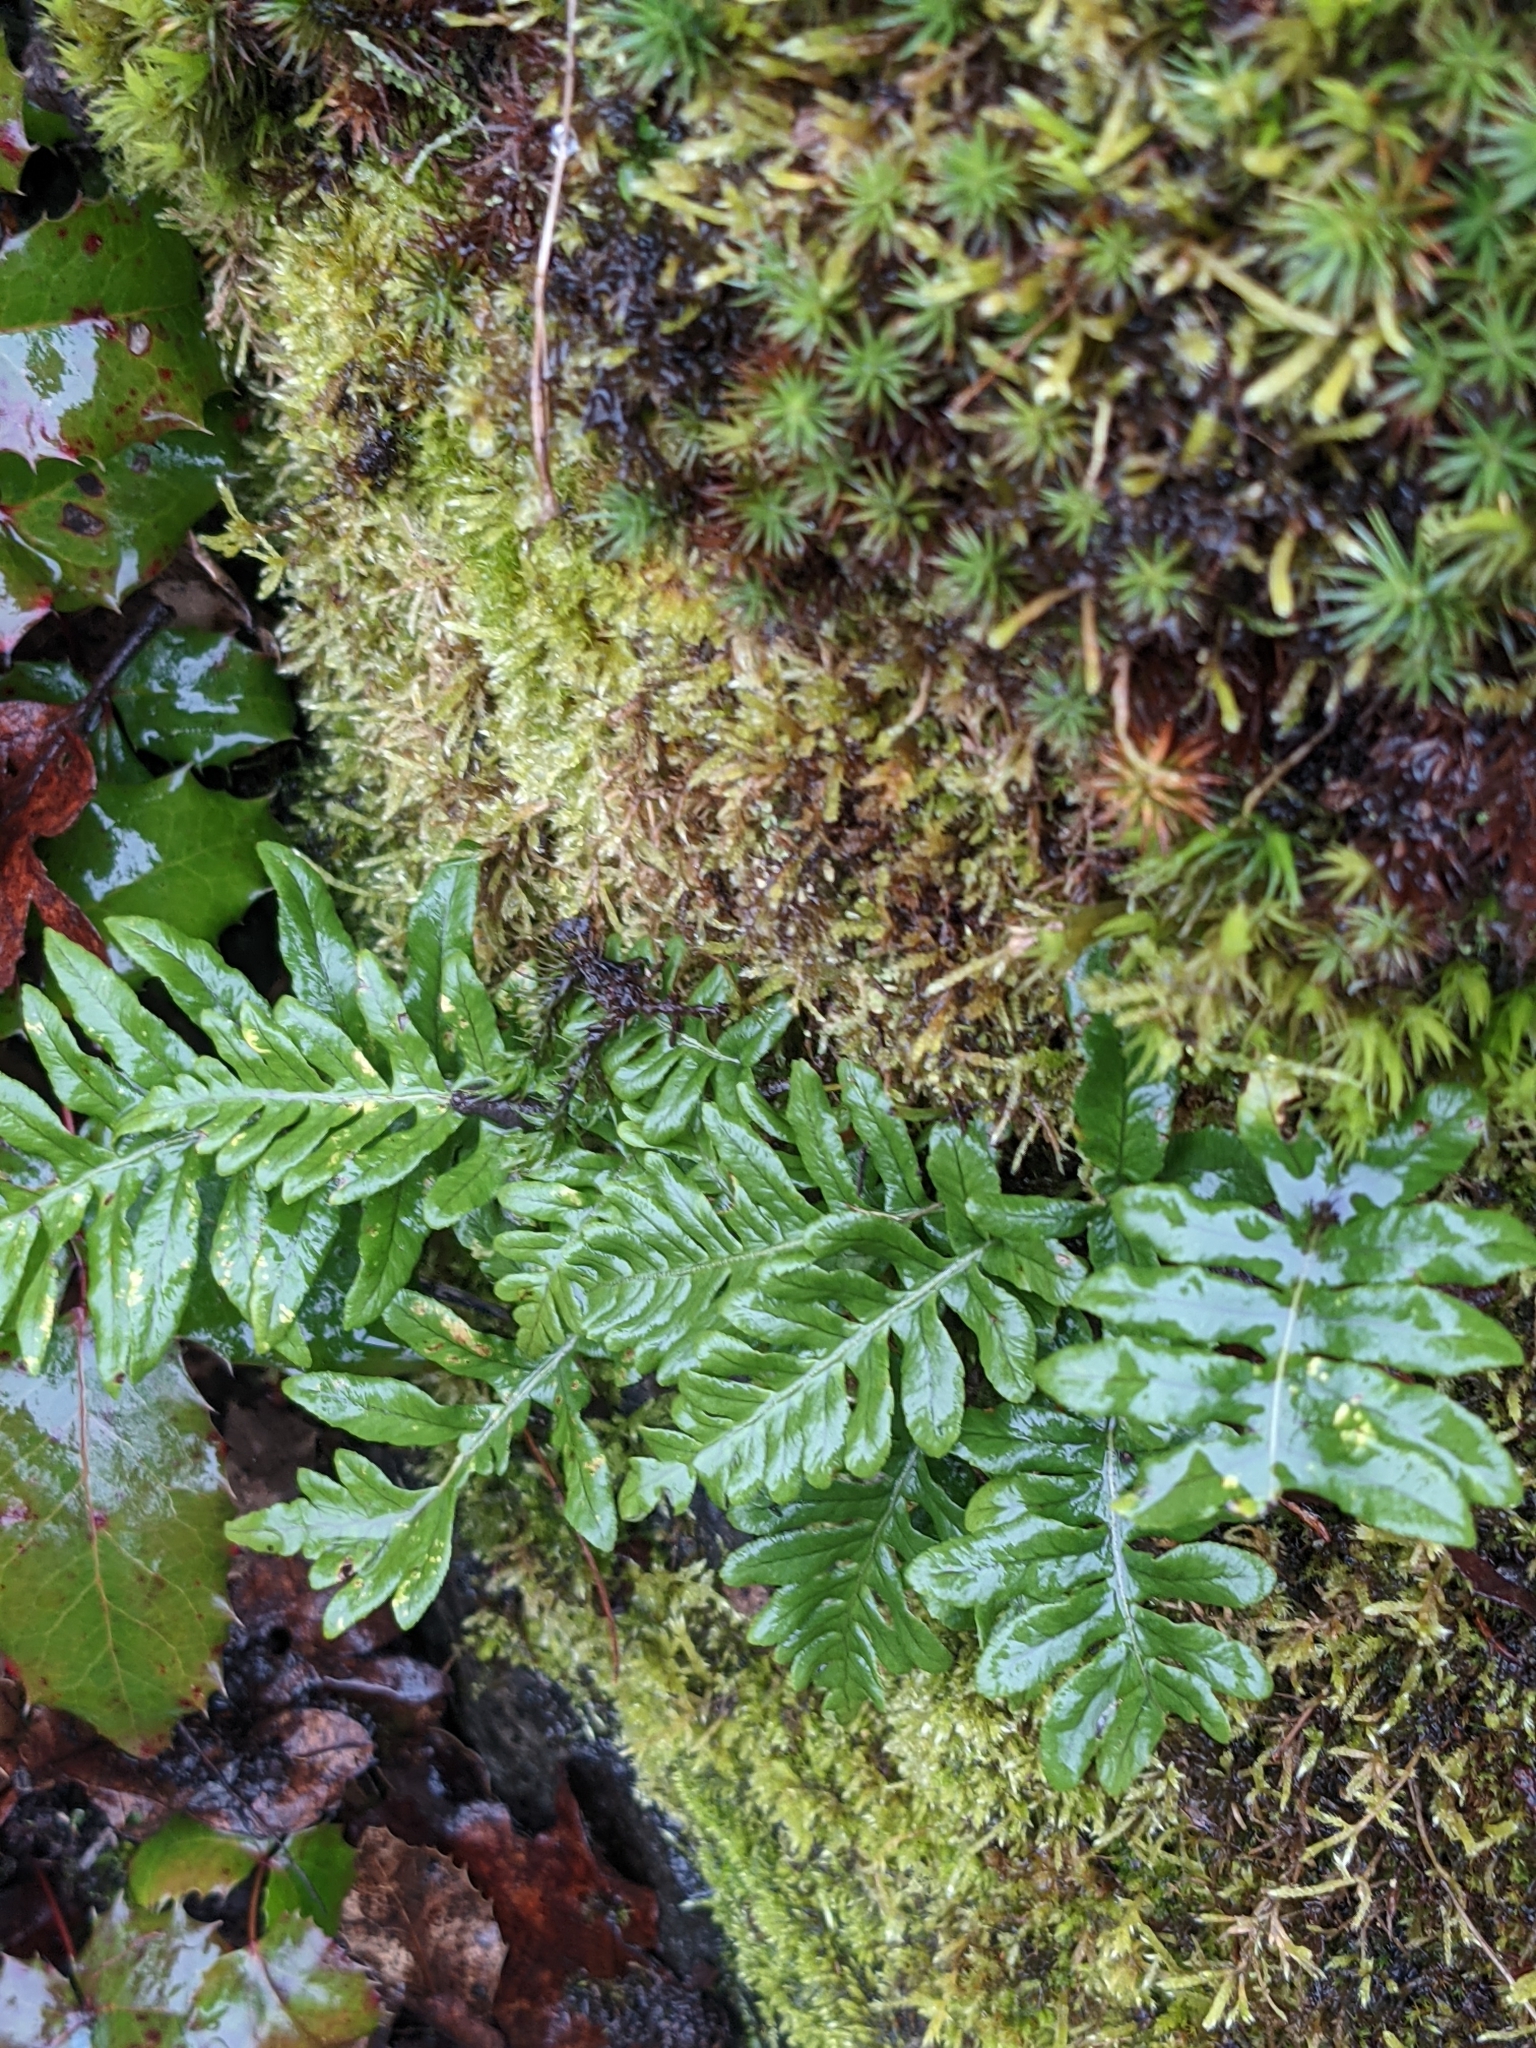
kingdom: Plantae
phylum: Tracheophyta
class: Polypodiopsida
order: Polypodiales
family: Polypodiaceae
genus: Polypodium
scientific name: Polypodium glycyrrhiza
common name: Licorice fern
